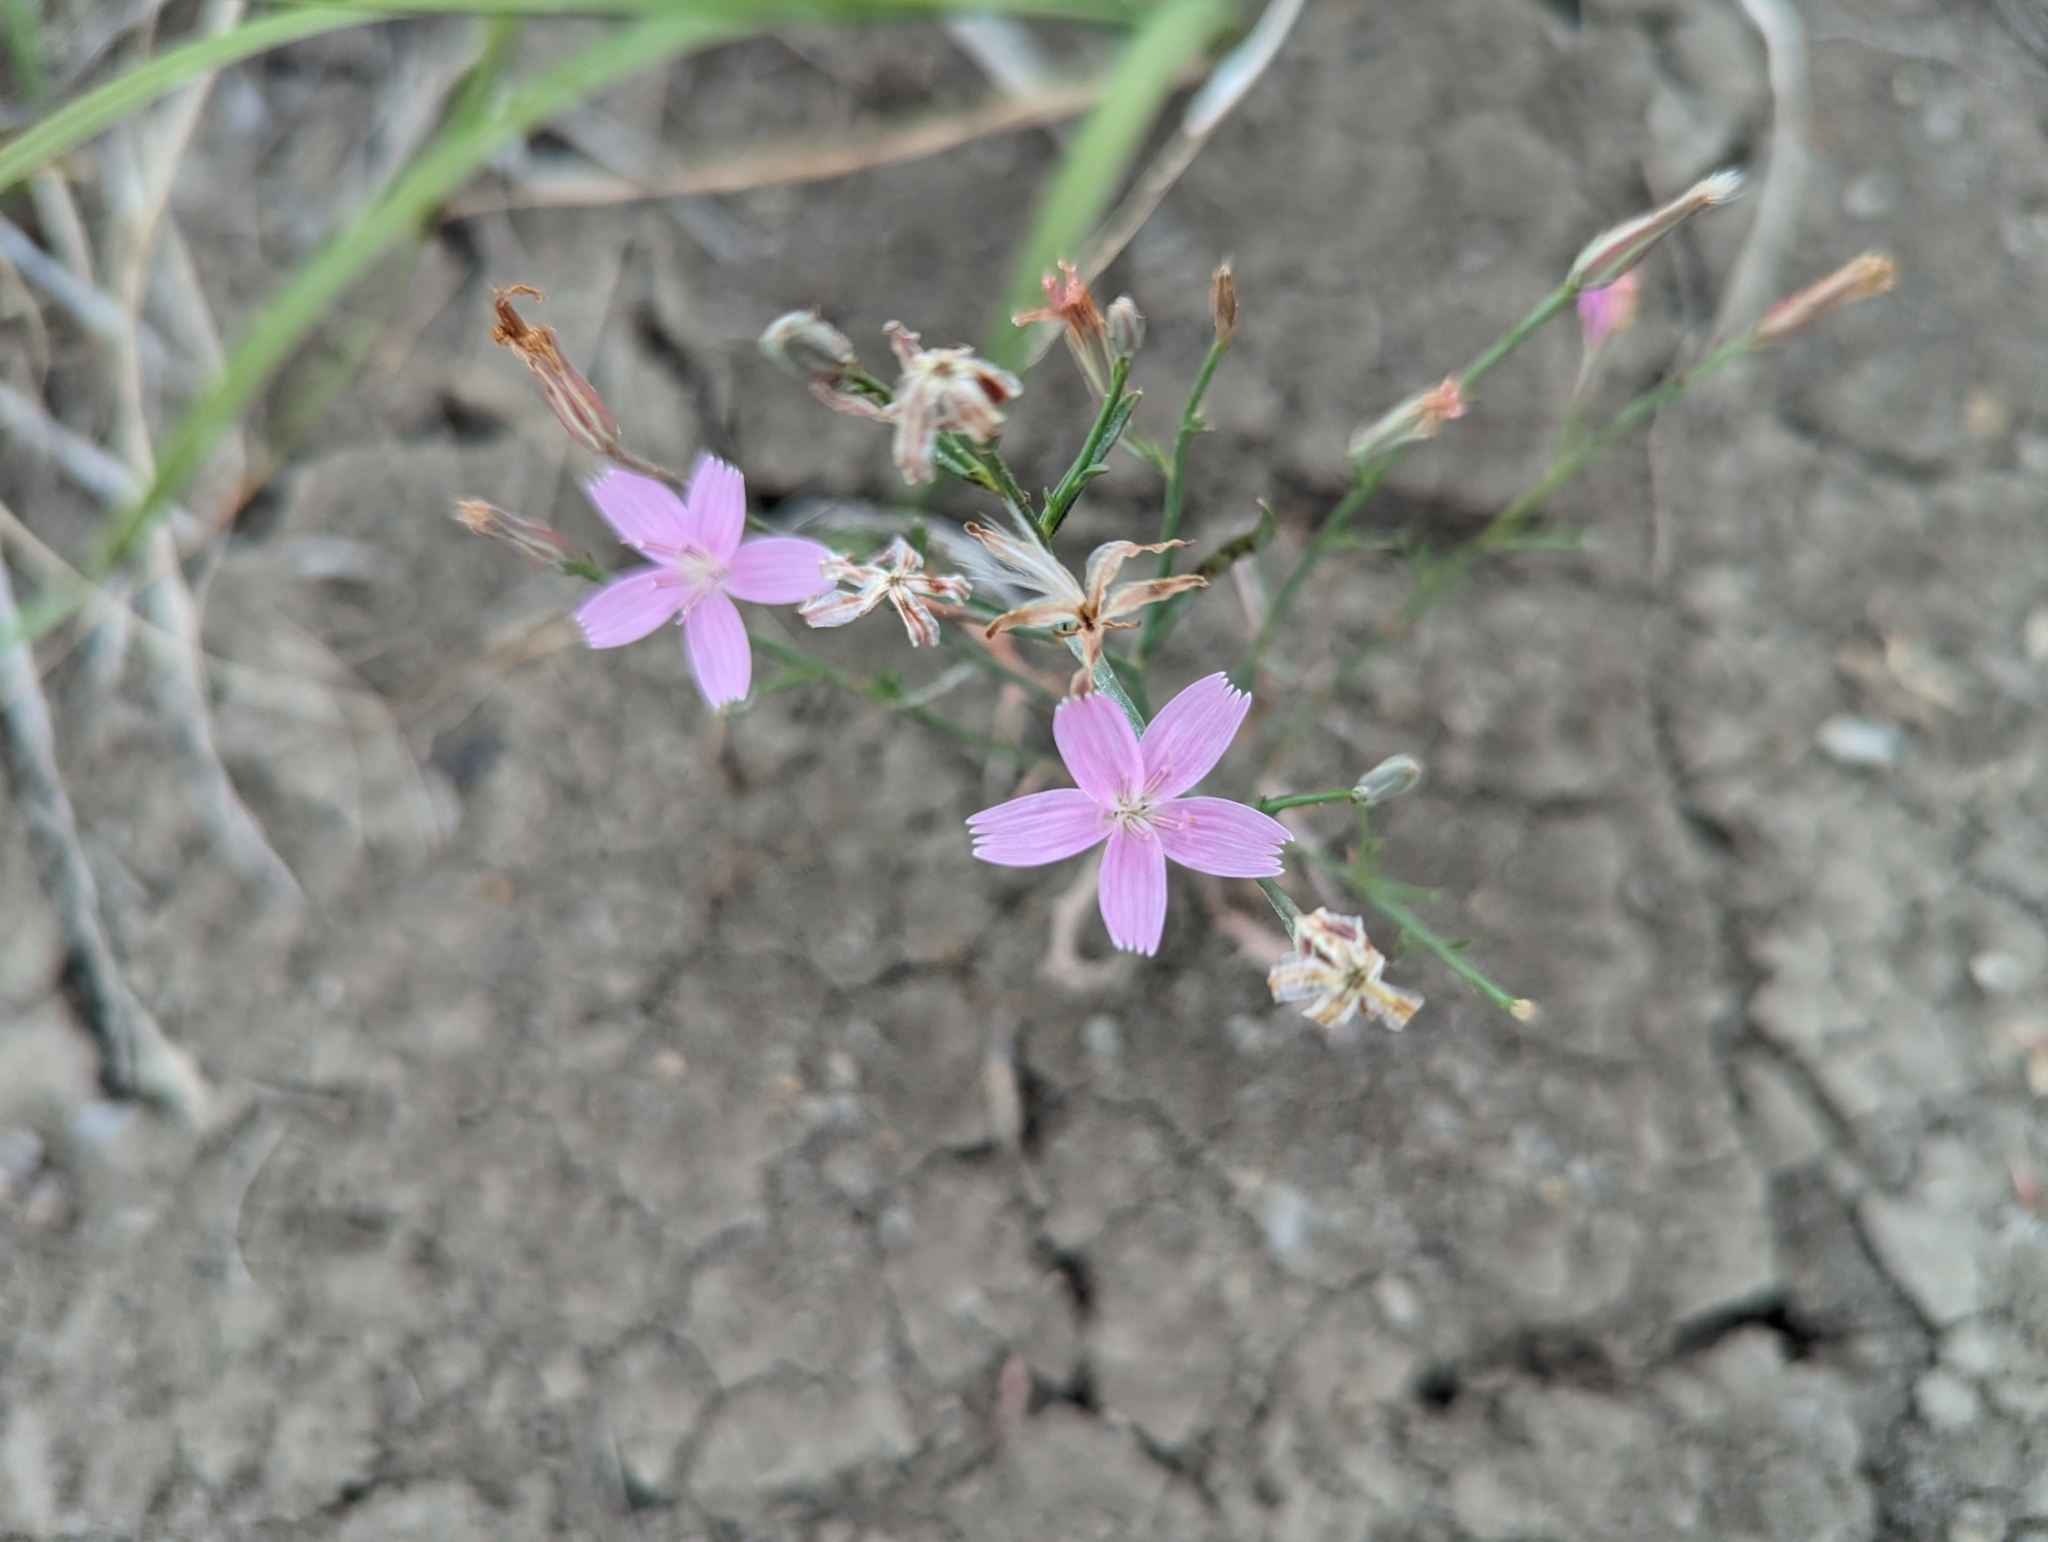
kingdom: Plantae
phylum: Tracheophyta
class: Magnoliopsida
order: Asterales
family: Asteraceae
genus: Lygodesmia
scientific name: Lygodesmia juncea
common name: Common skeletonweed
